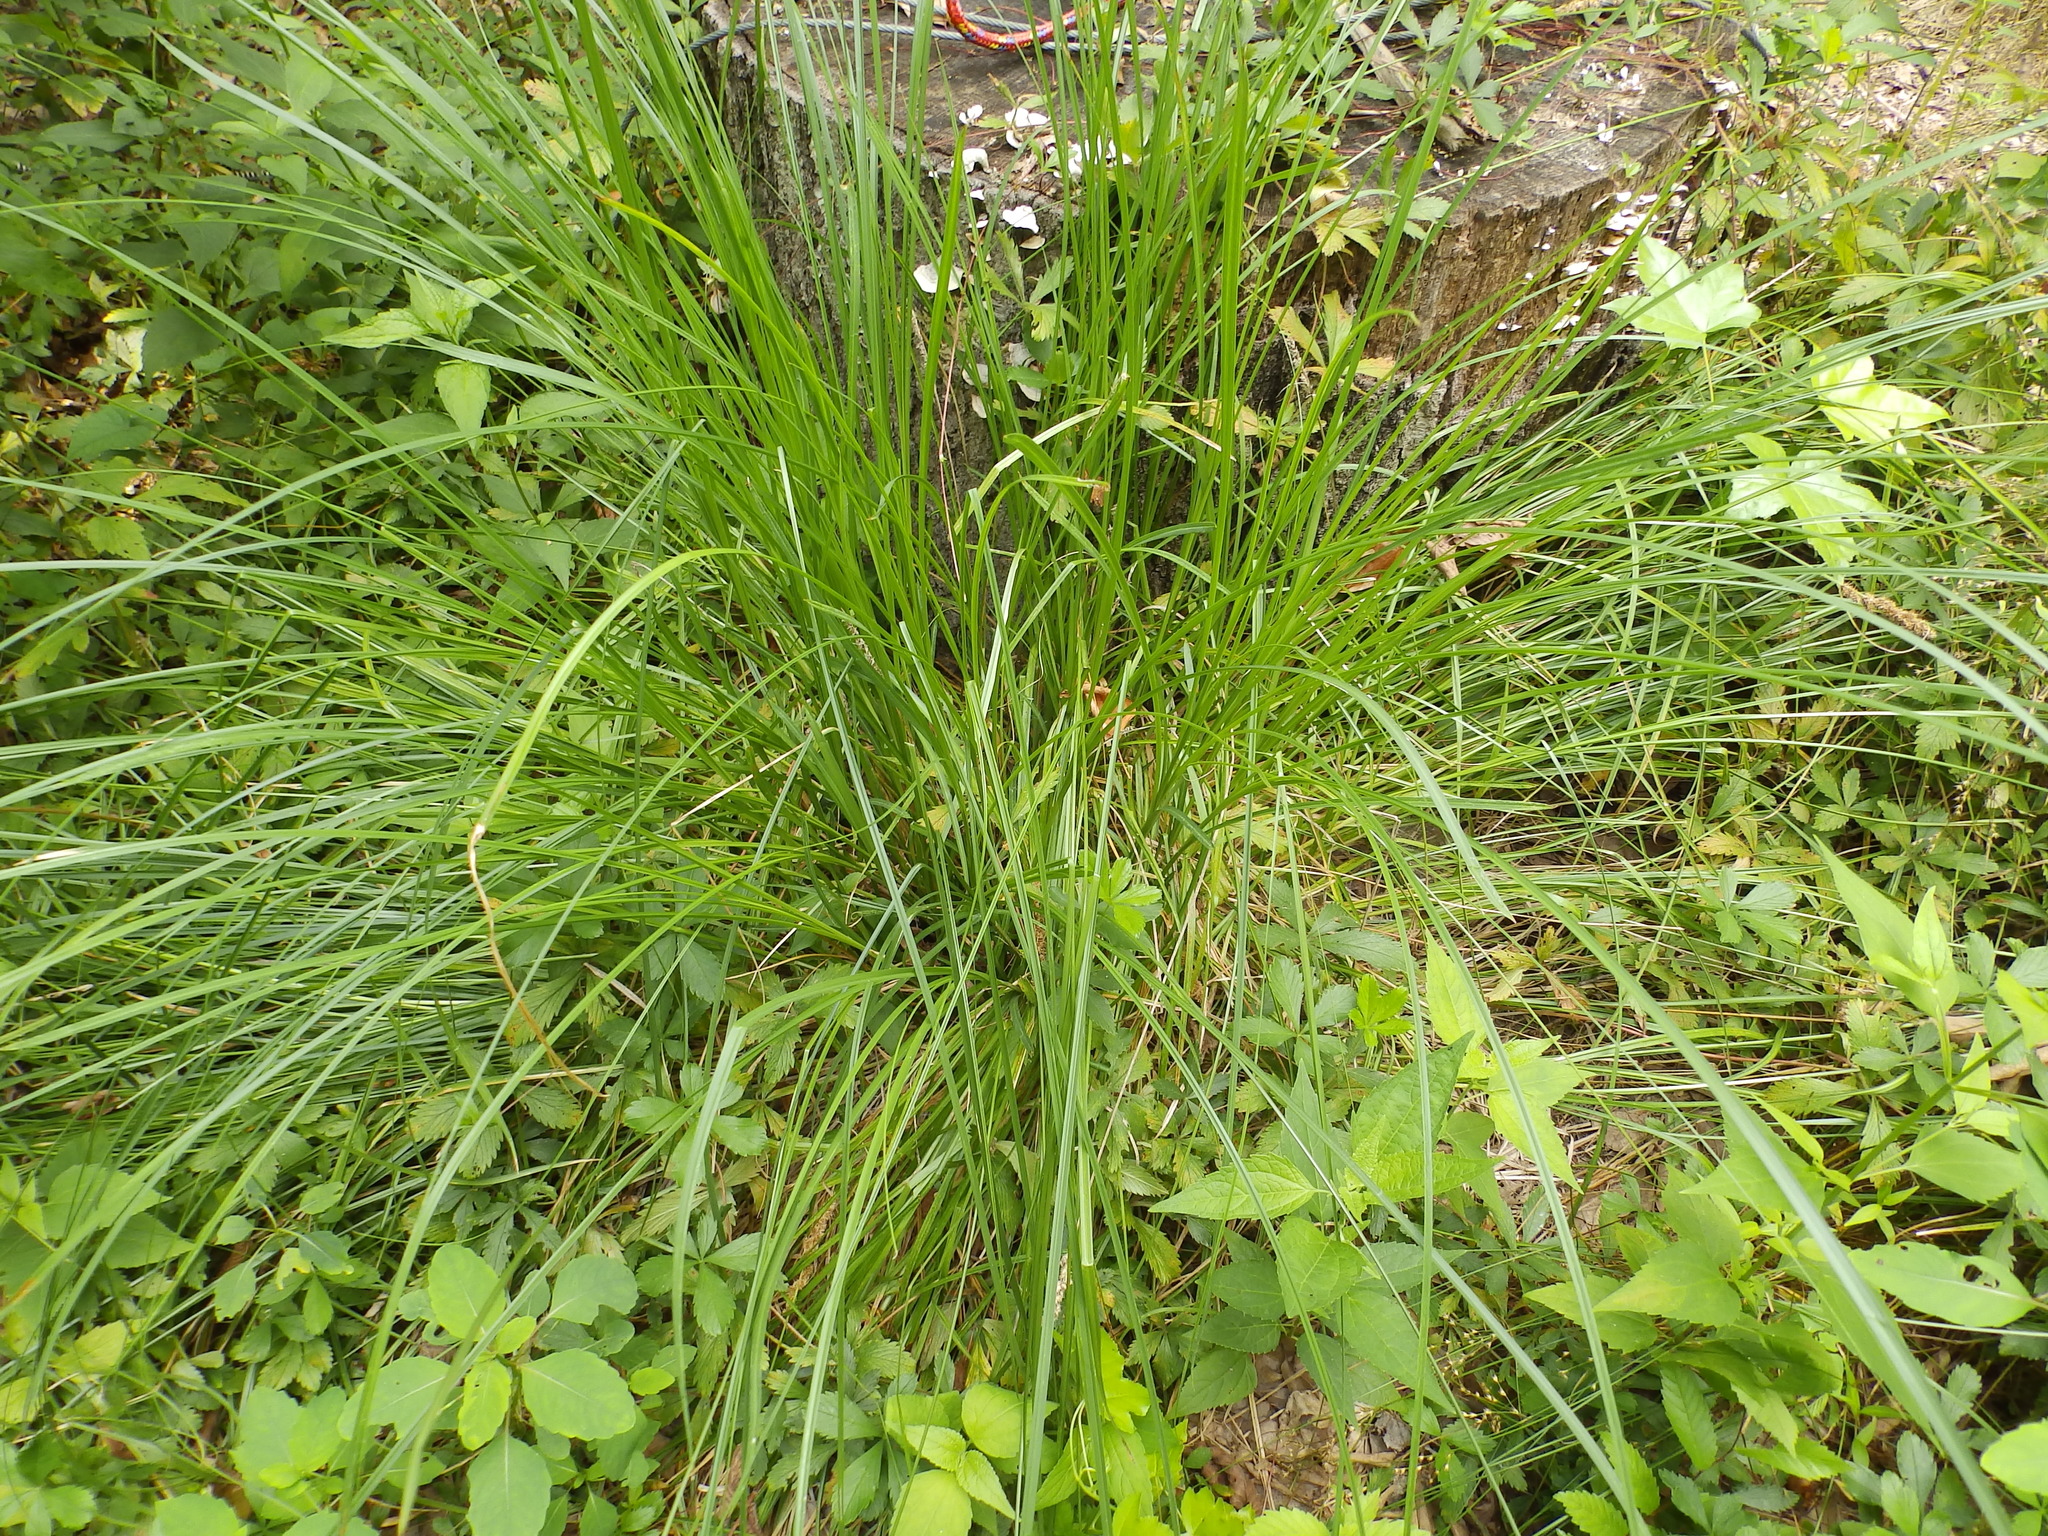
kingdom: Plantae
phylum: Tracheophyta
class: Liliopsida
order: Poales
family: Cyperaceae
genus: Carex
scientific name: Carex vulpinoidea
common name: American fox-sedge
